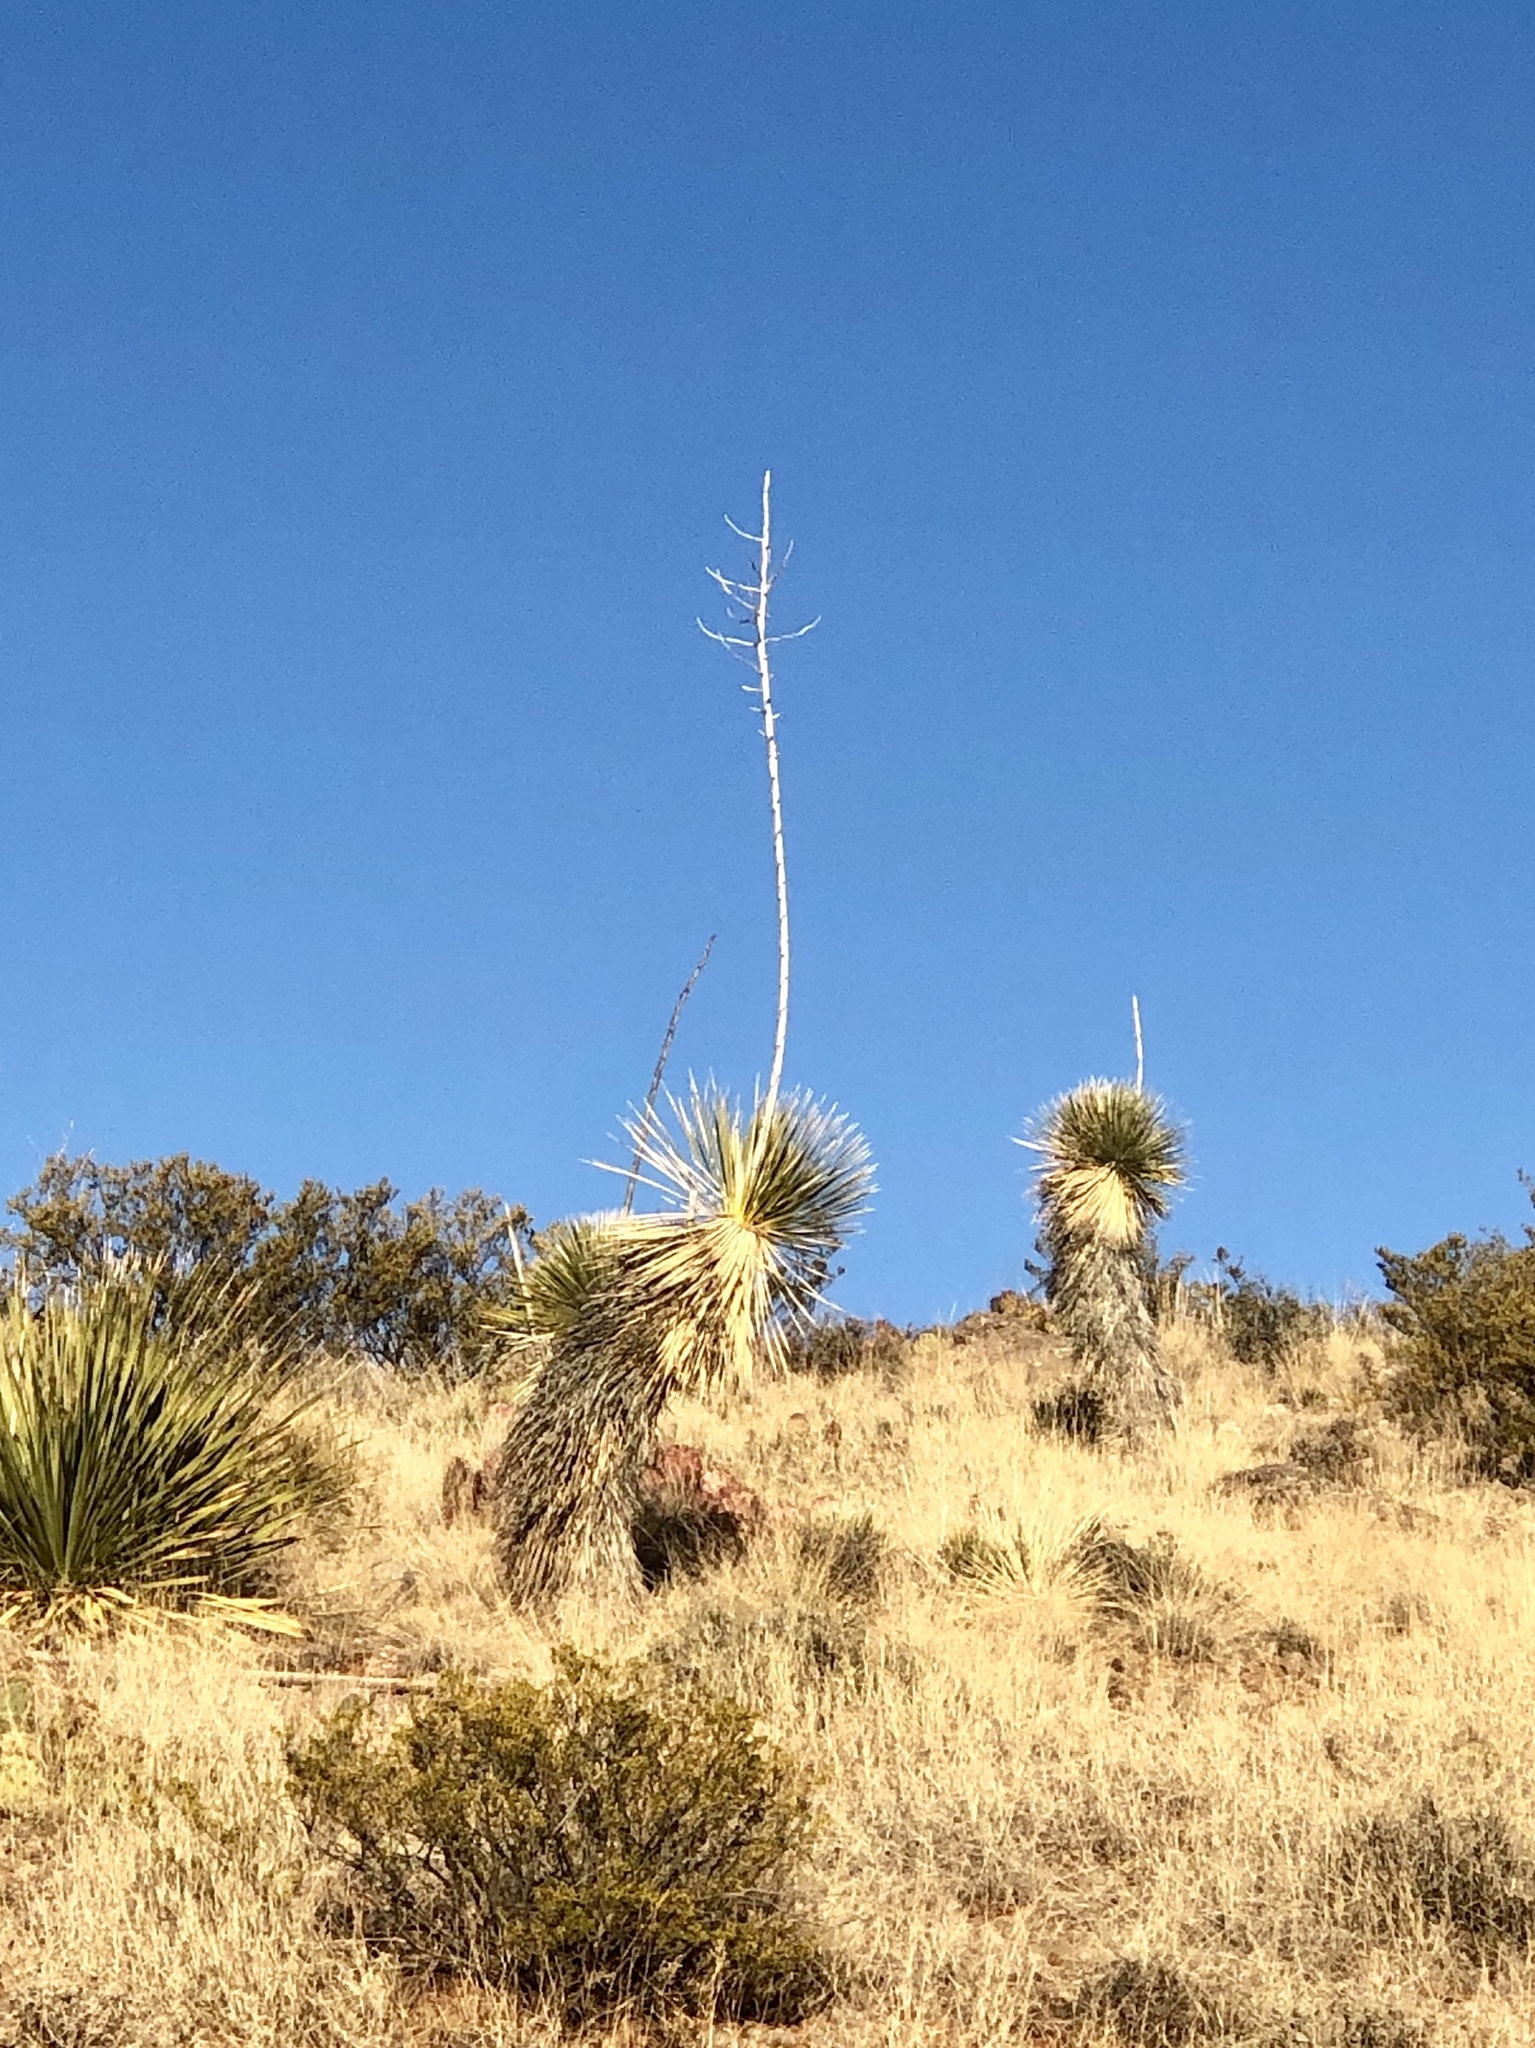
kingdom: Plantae
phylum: Tracheophyta
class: Liliopsida
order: Asparagales
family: Asparagaceae
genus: Yucca
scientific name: Yucca elata
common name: Palmella
